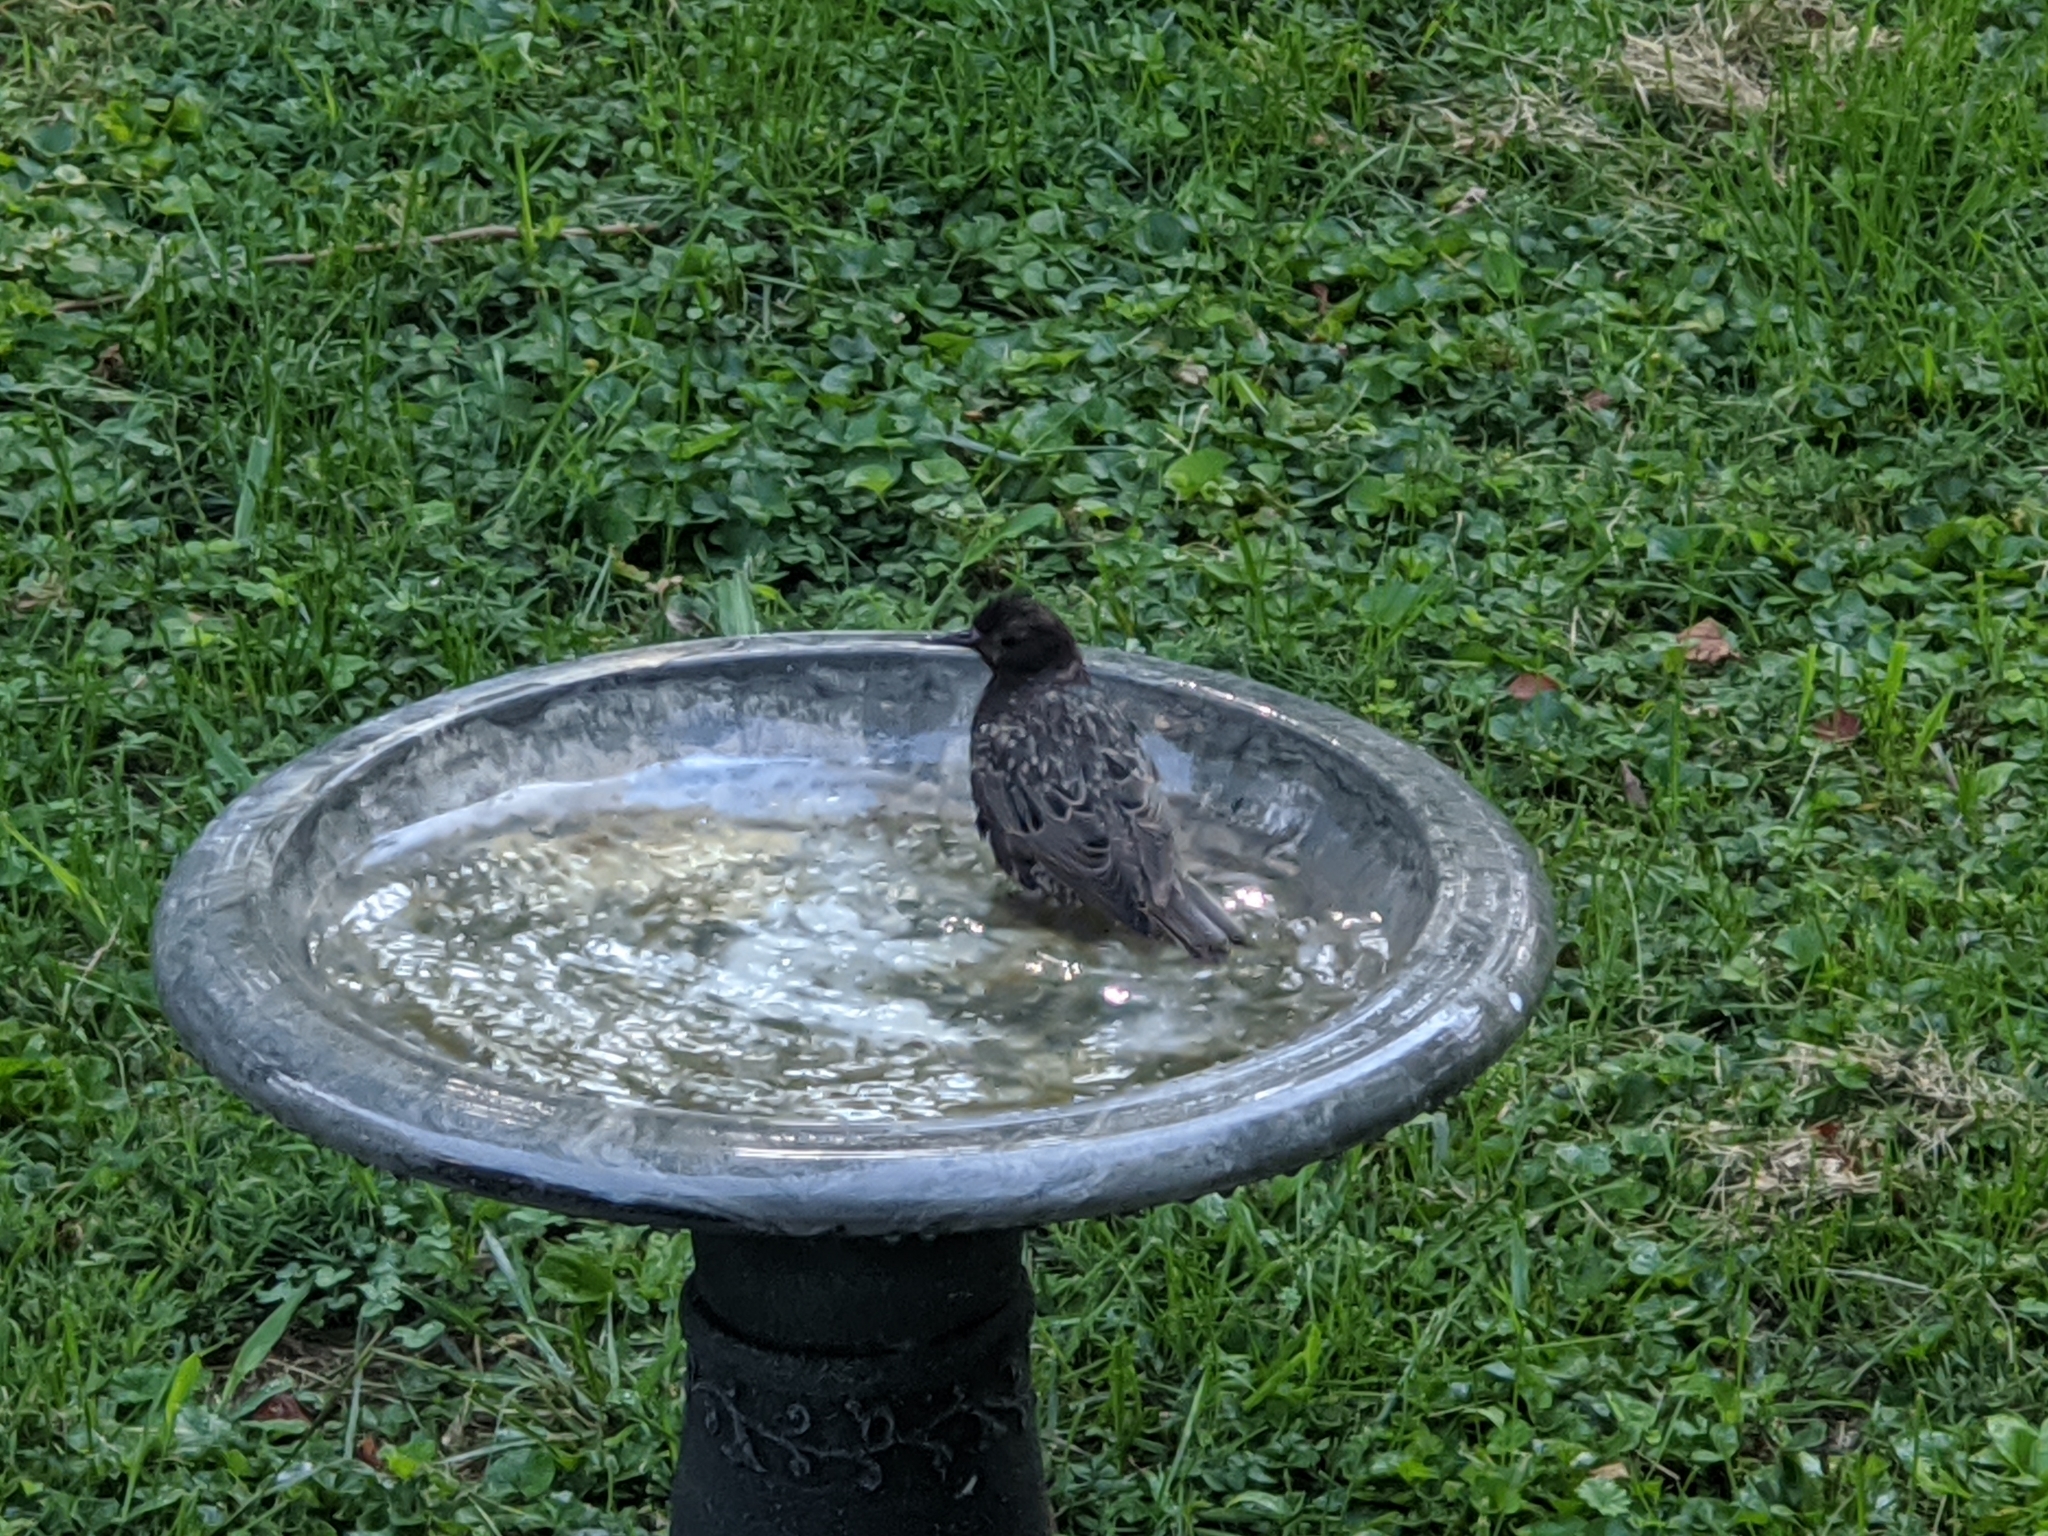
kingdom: Animalia
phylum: Chordata
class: Aves
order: Passeriformes
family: Sturnidae
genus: Sturnus
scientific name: Sturnus vulgaris
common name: Common starling
